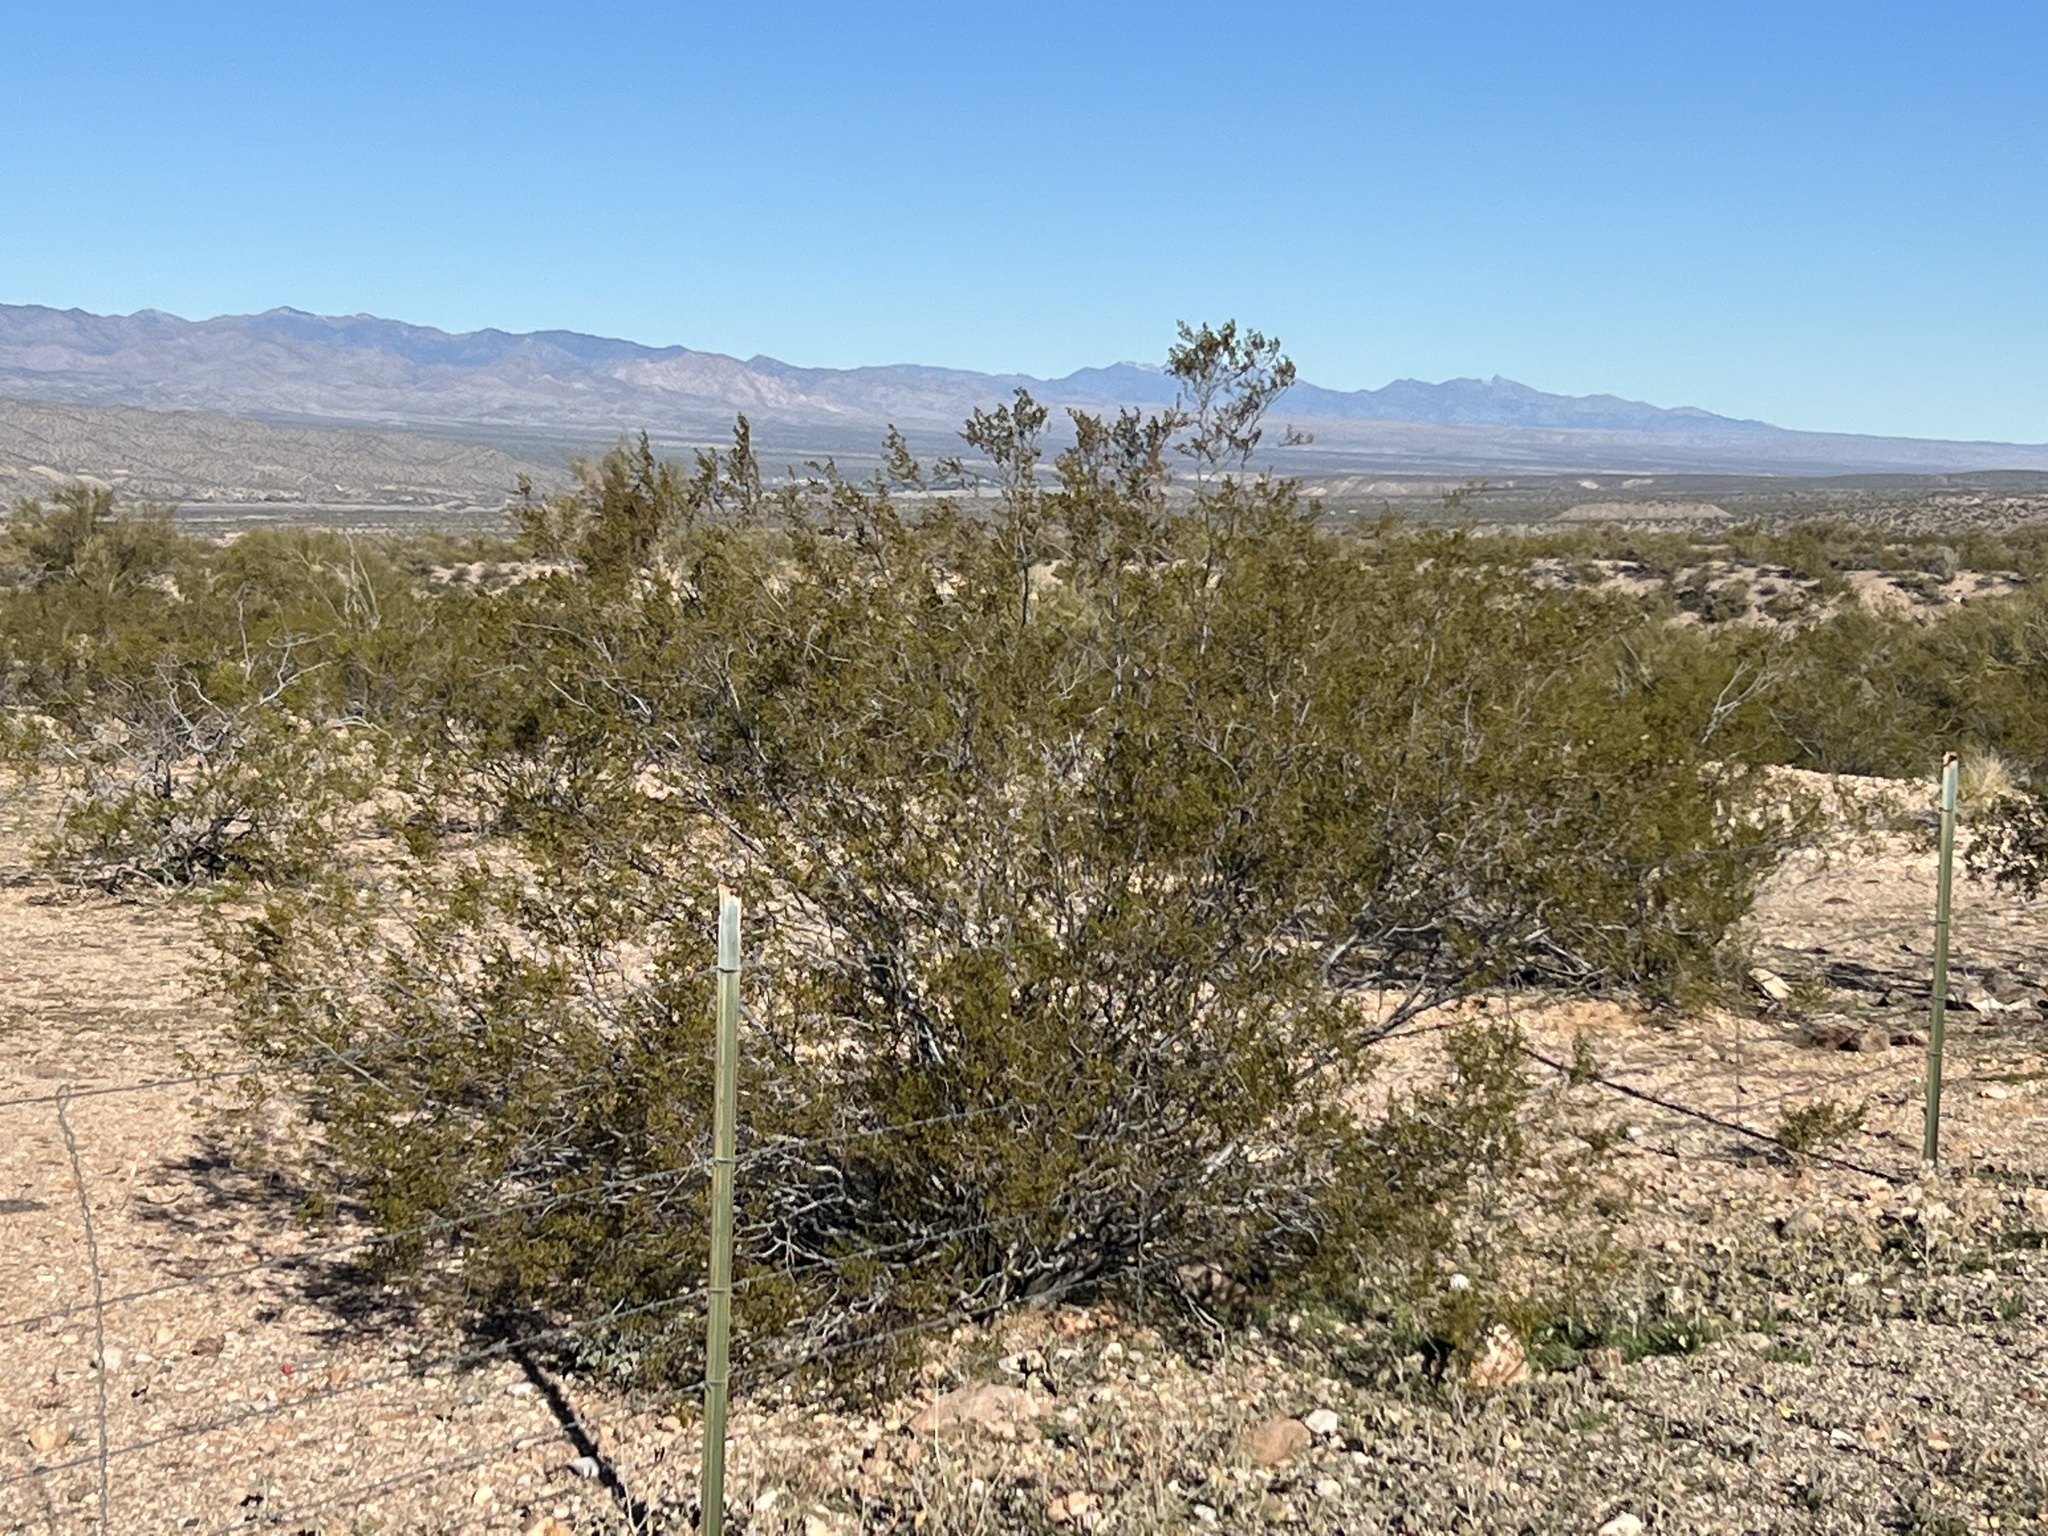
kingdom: Plantae
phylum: Tracheophyta
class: Magnoliopsida
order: Zygophyllales
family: Zygophyllaceae
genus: Larrea
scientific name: Larrea tridentata
